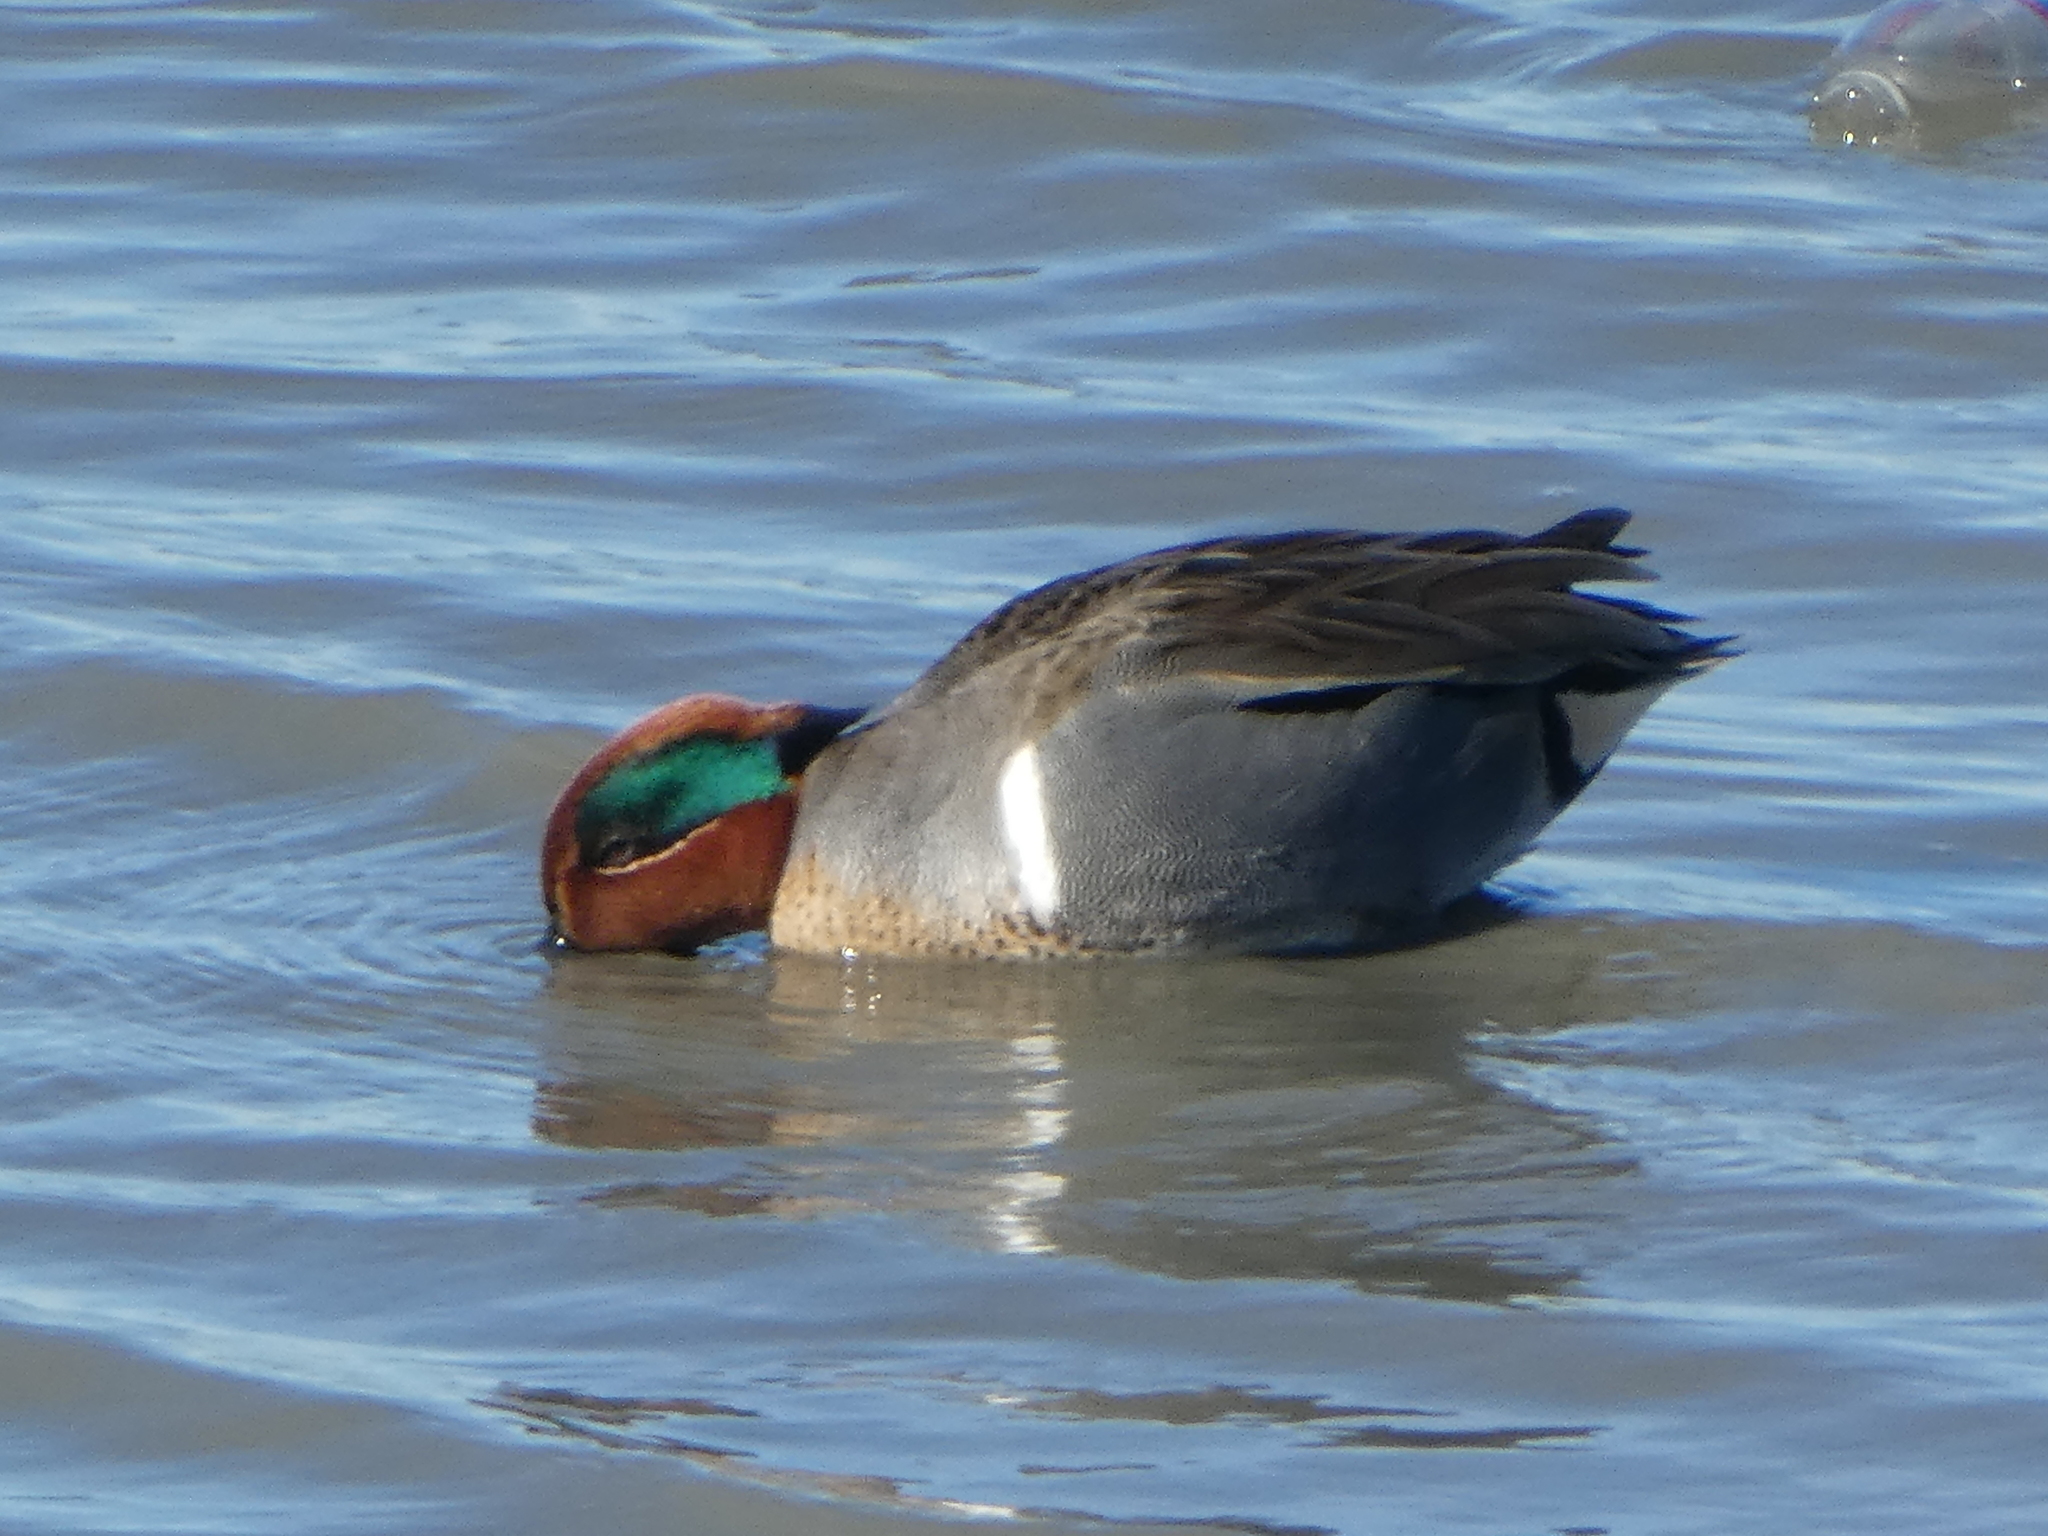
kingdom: Animalia
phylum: Chordata
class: Aves
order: Anseriformes
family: Anatidae
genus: Anas
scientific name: Anas carolinensis
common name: Green-winged teal
